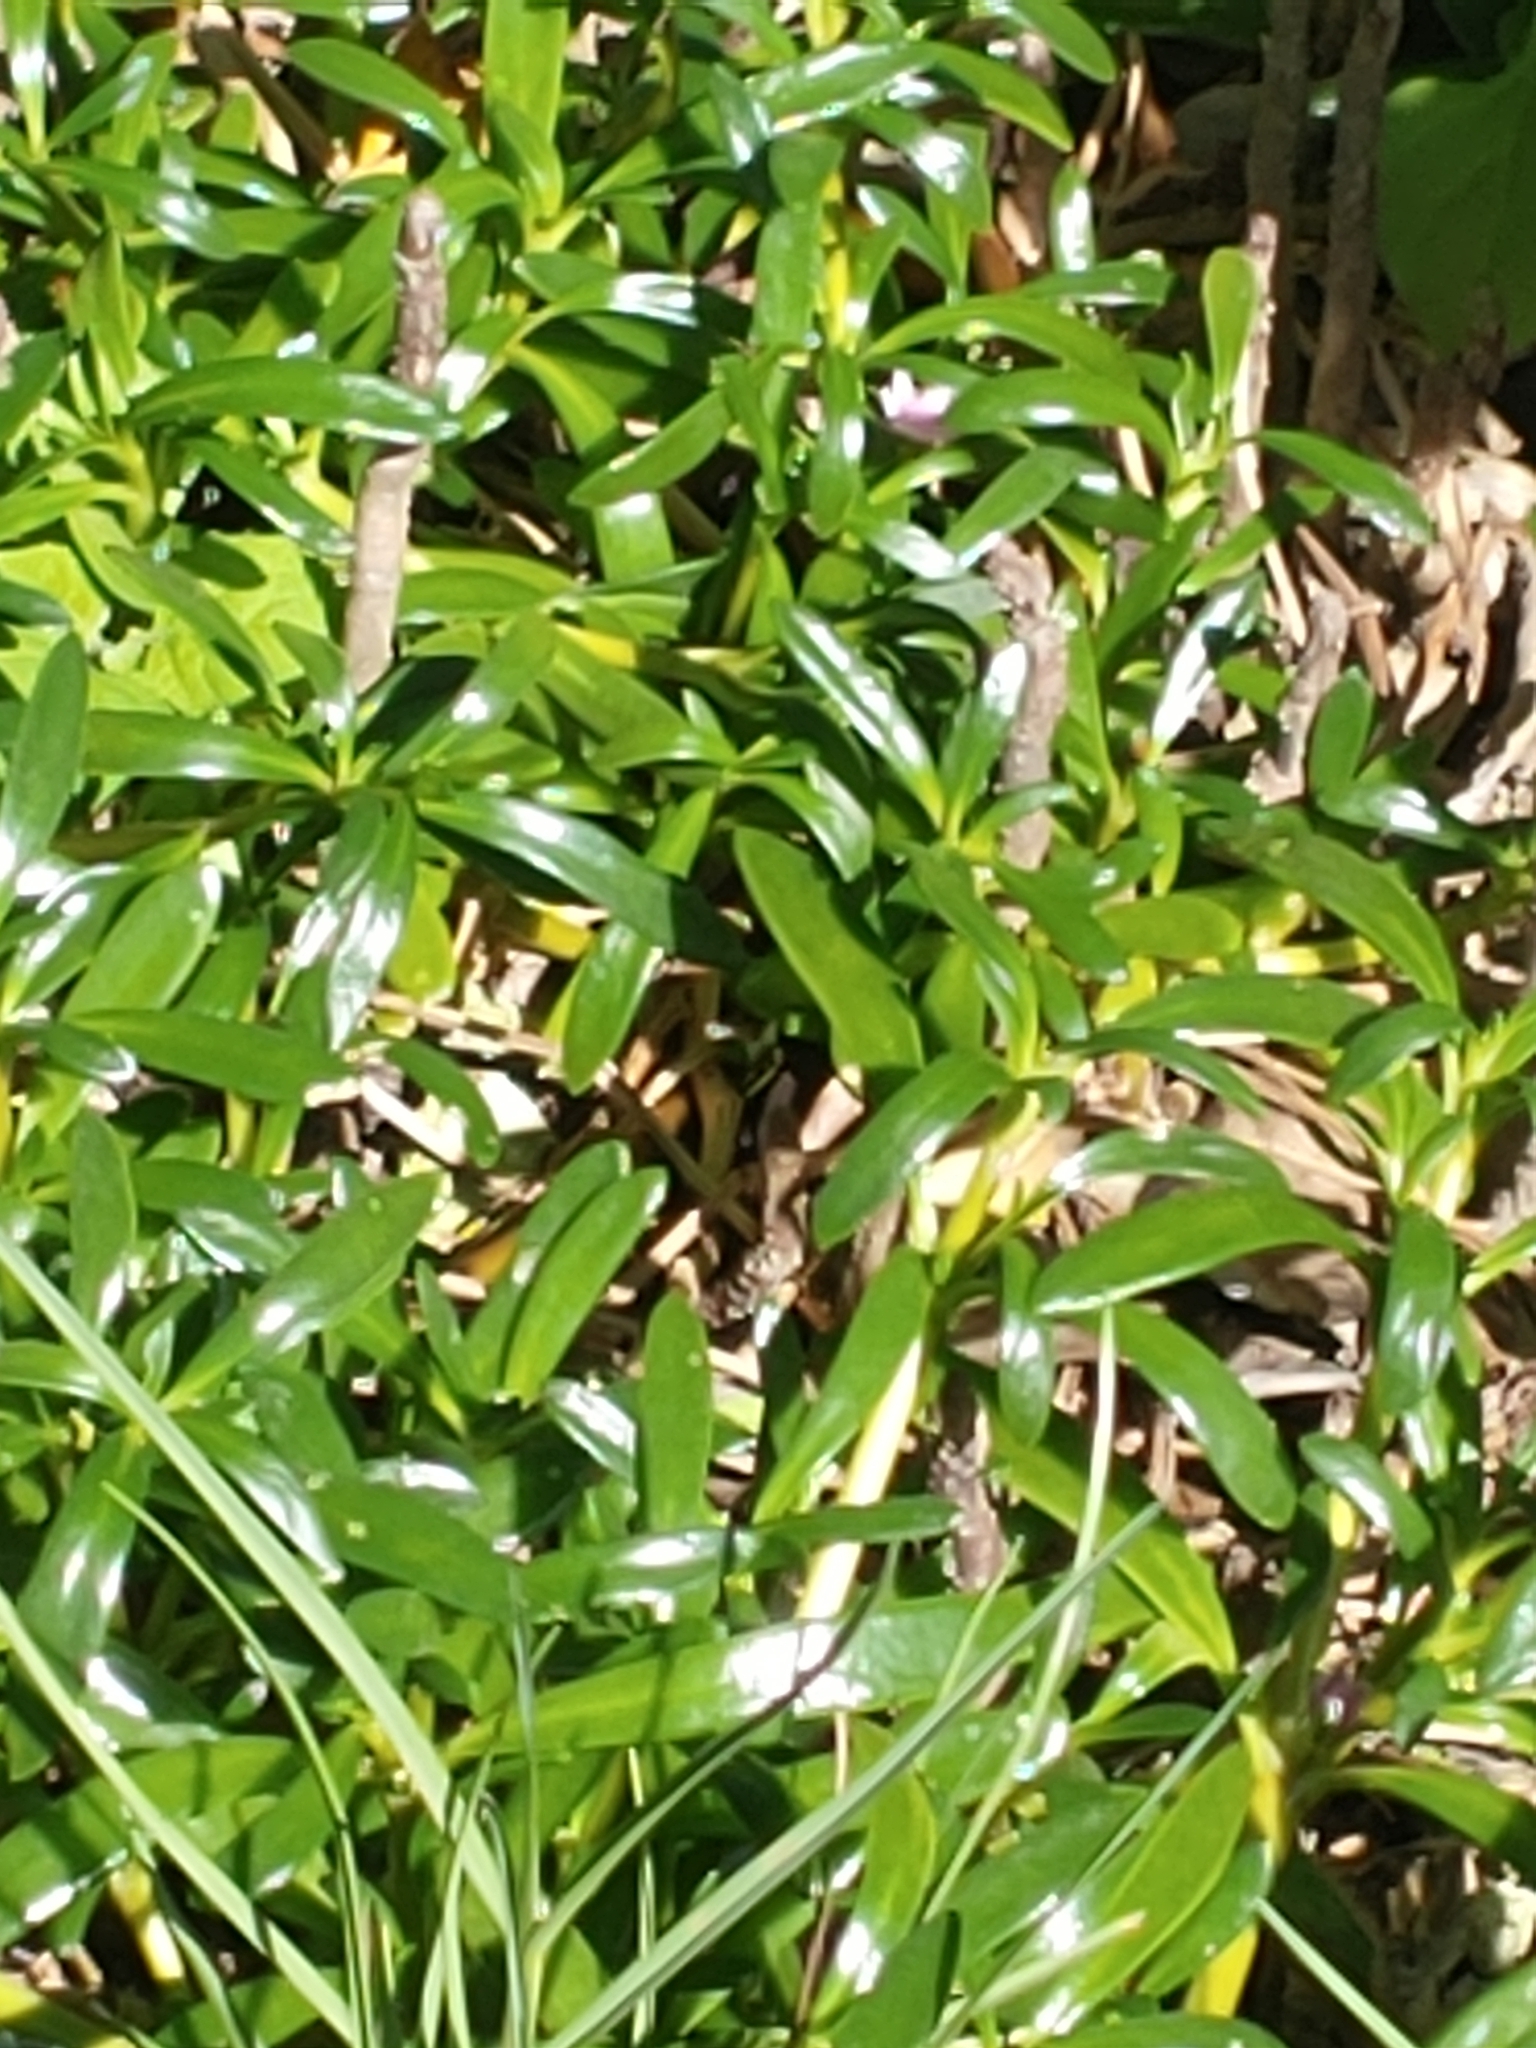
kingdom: Plantae
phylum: Tracheophyta
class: Magnoliopsida
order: Caryophyllales
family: Aizoaceae
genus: Sesuvium
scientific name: Sesuvium portulacastrum
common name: Sea-purslane
